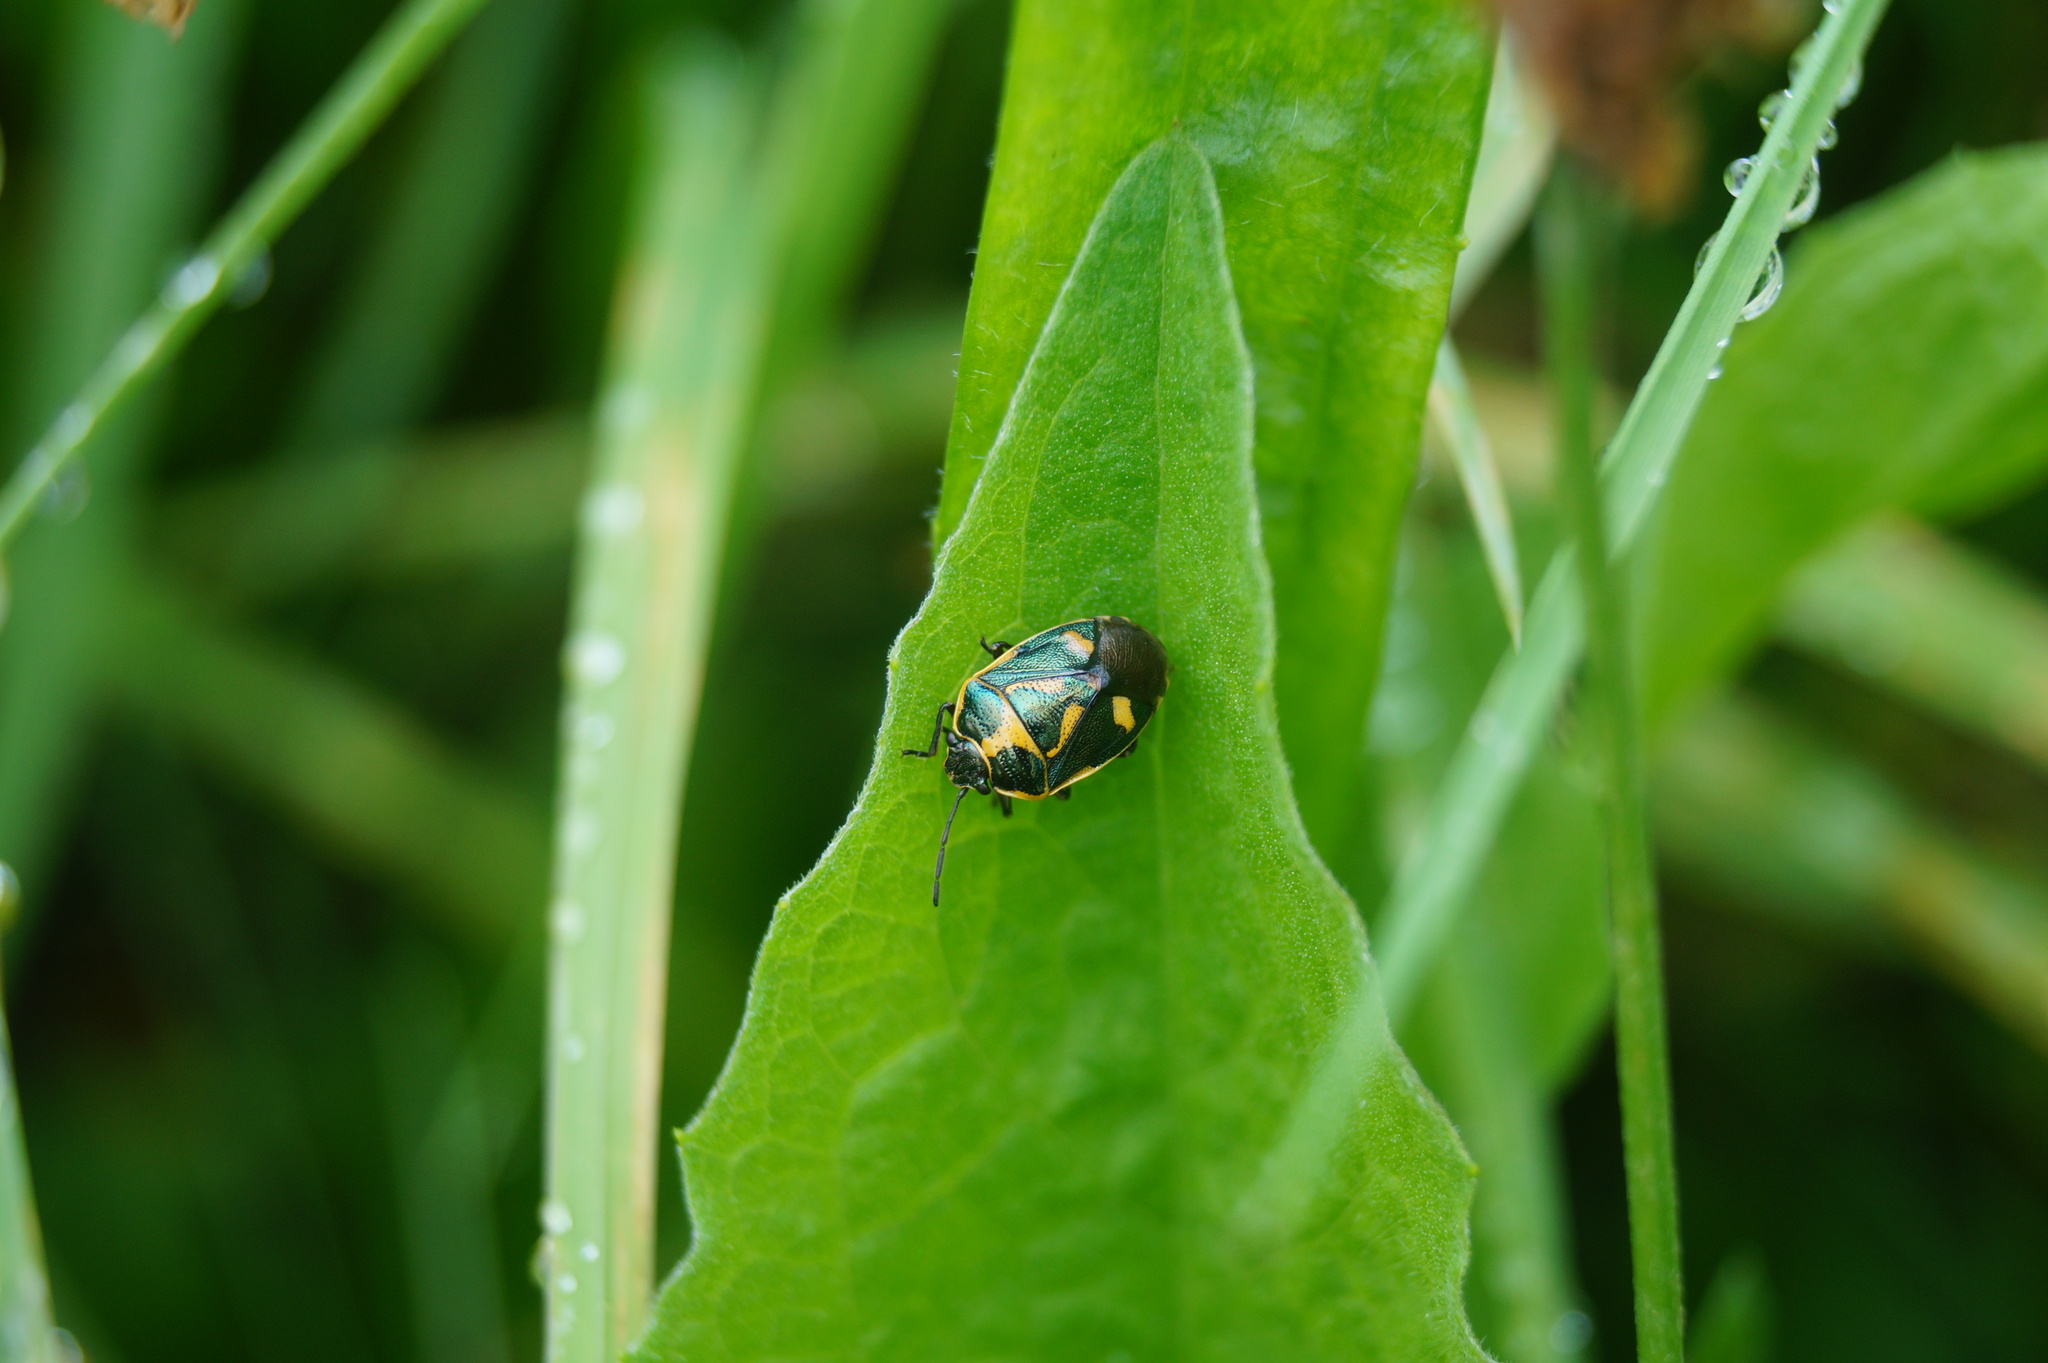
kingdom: Animalia
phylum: Arthropoda
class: Insecta
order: Hemiptera
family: Pentatomidae
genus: Eurydema
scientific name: Eurydema oleracea
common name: Cabbage bug
